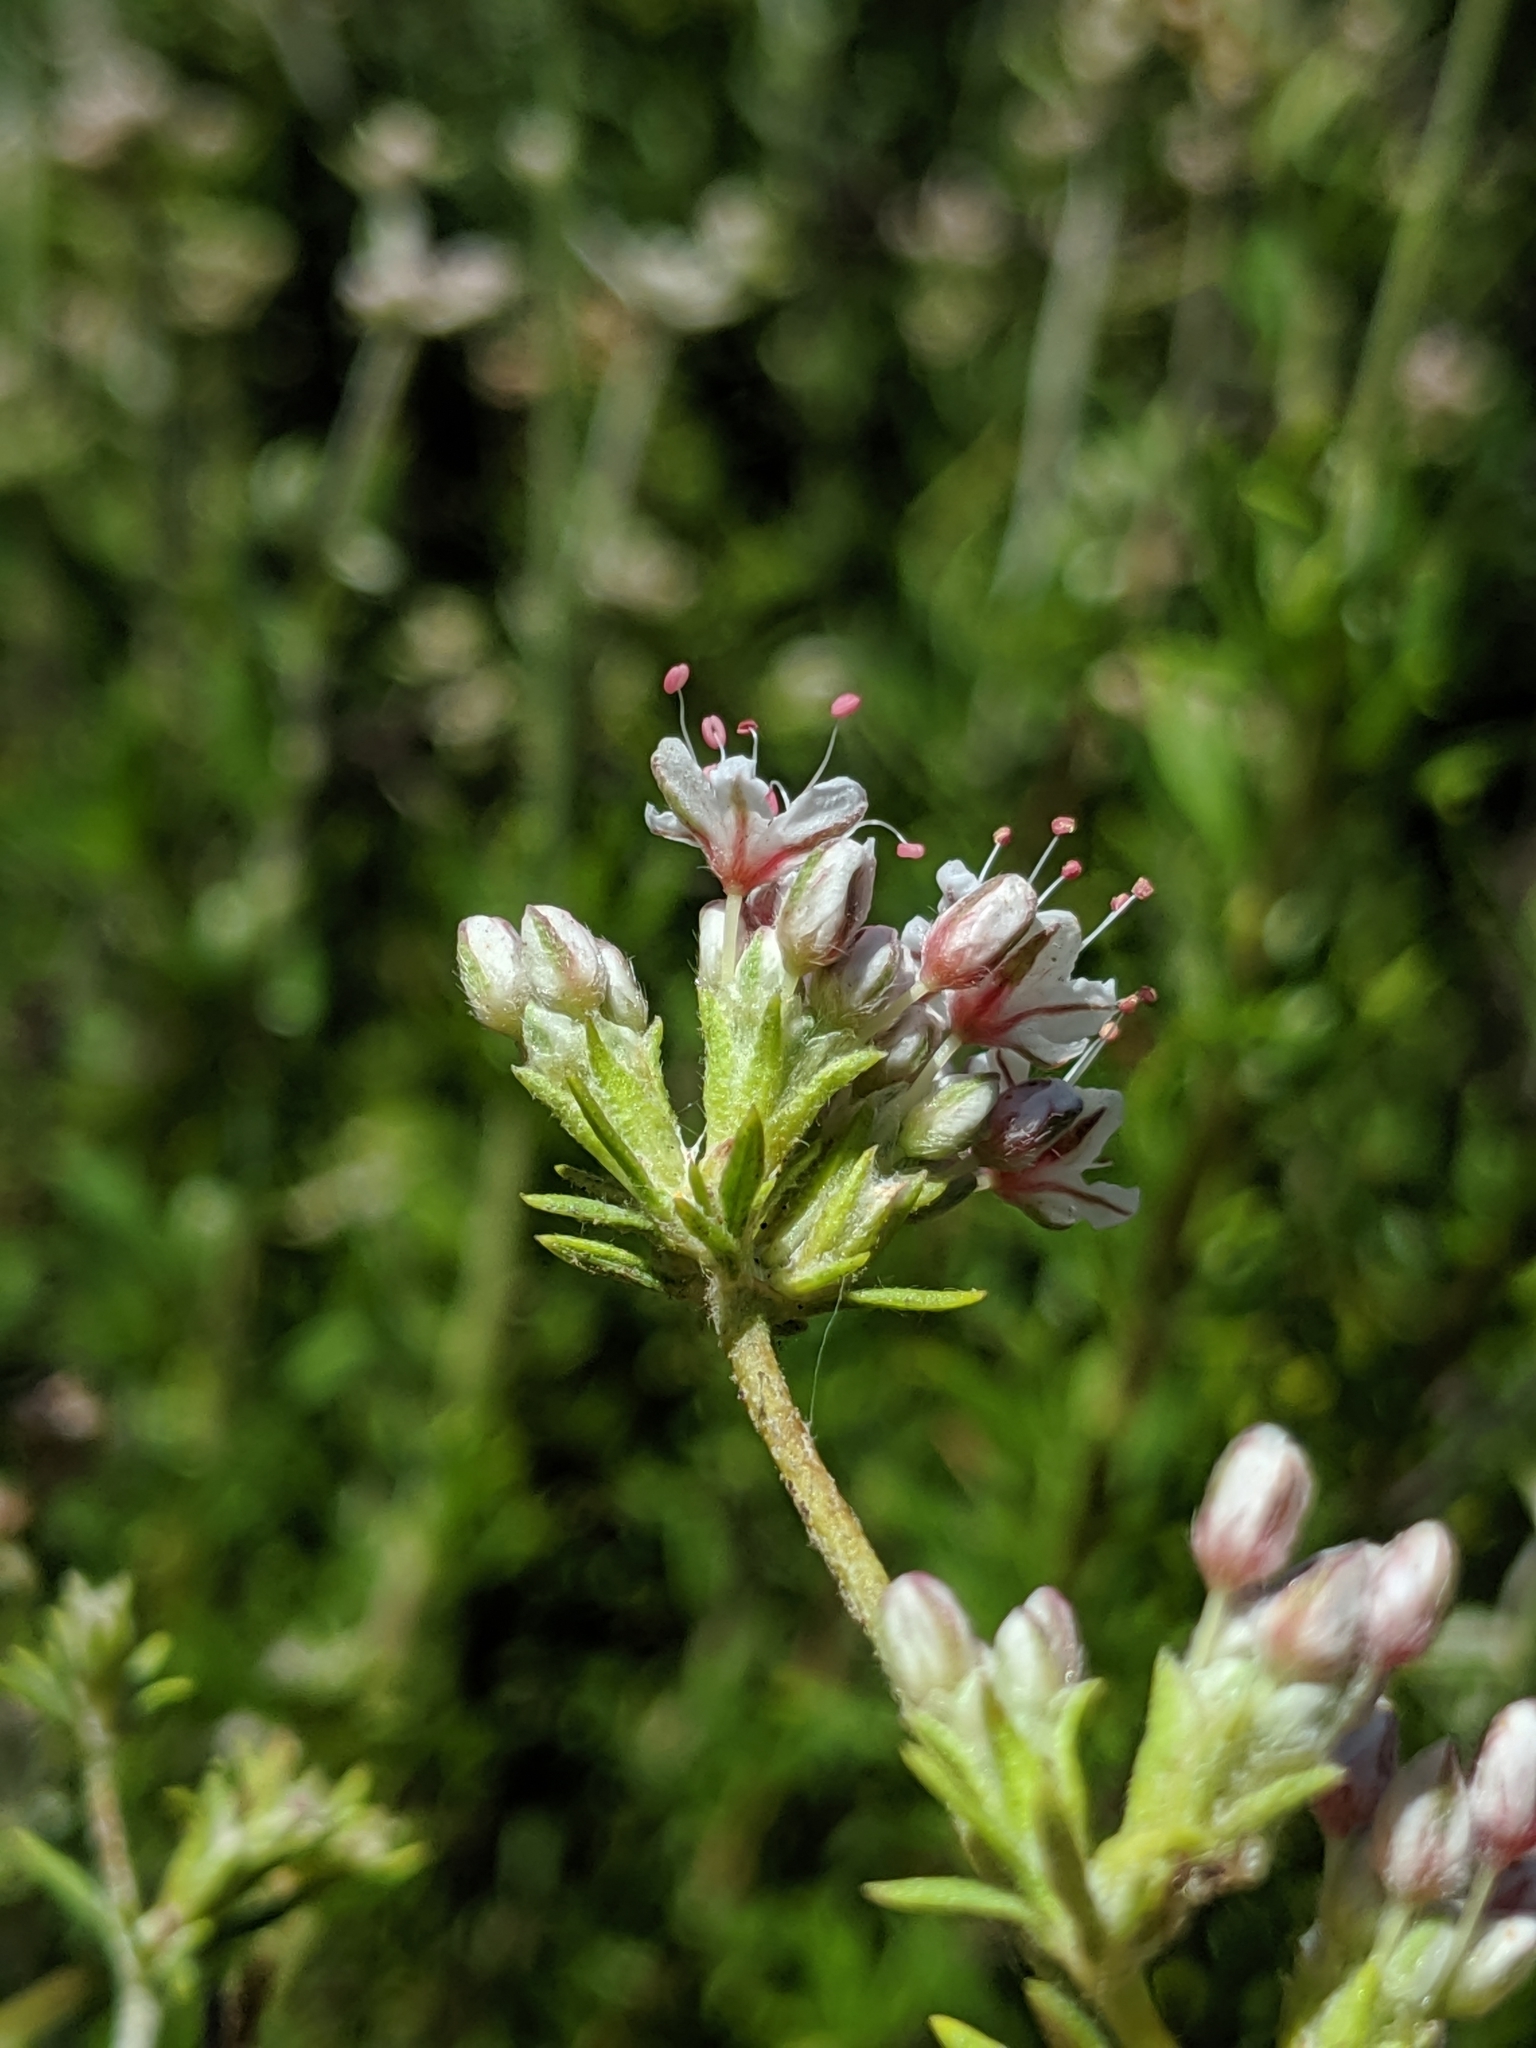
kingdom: Plantae
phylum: Tracheophyta
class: Magnoliopsida
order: Caryophyllales
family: Polygonaceae
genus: Eriogonum
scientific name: Eriogonum fasciculatum
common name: California wild buckwheat
